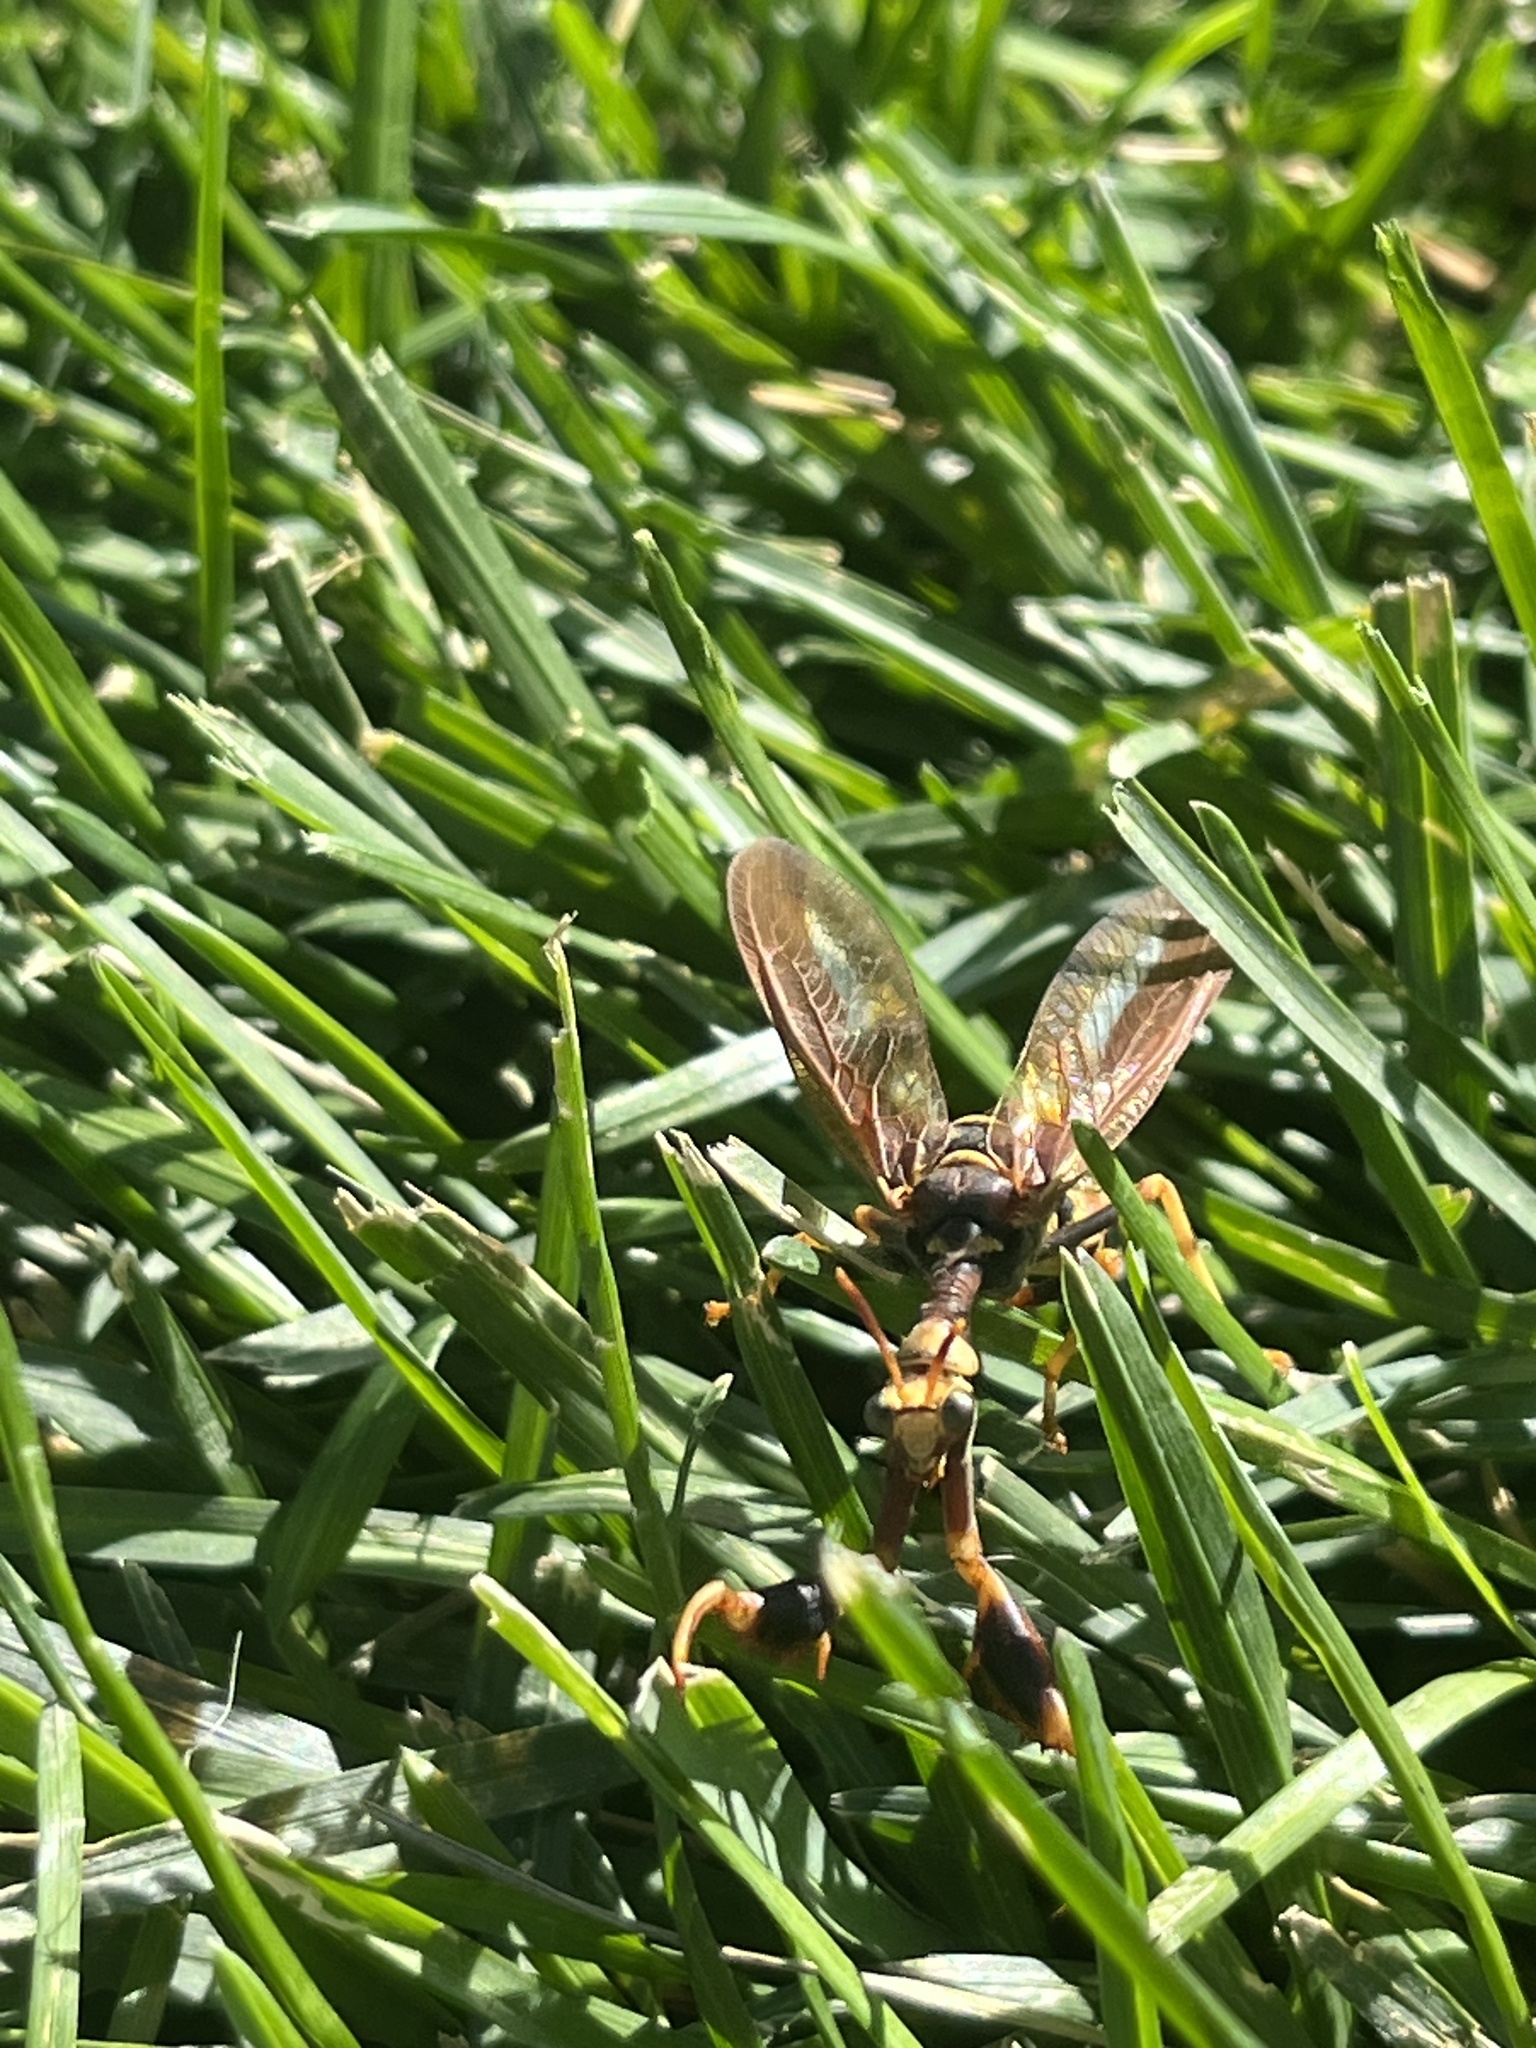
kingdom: Animalia
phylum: Arthropoda
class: Insecta
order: Neuroptera
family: Mantispidae
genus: Climaciella
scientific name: Climaciella brunnea
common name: Brown wasp mantidfly
